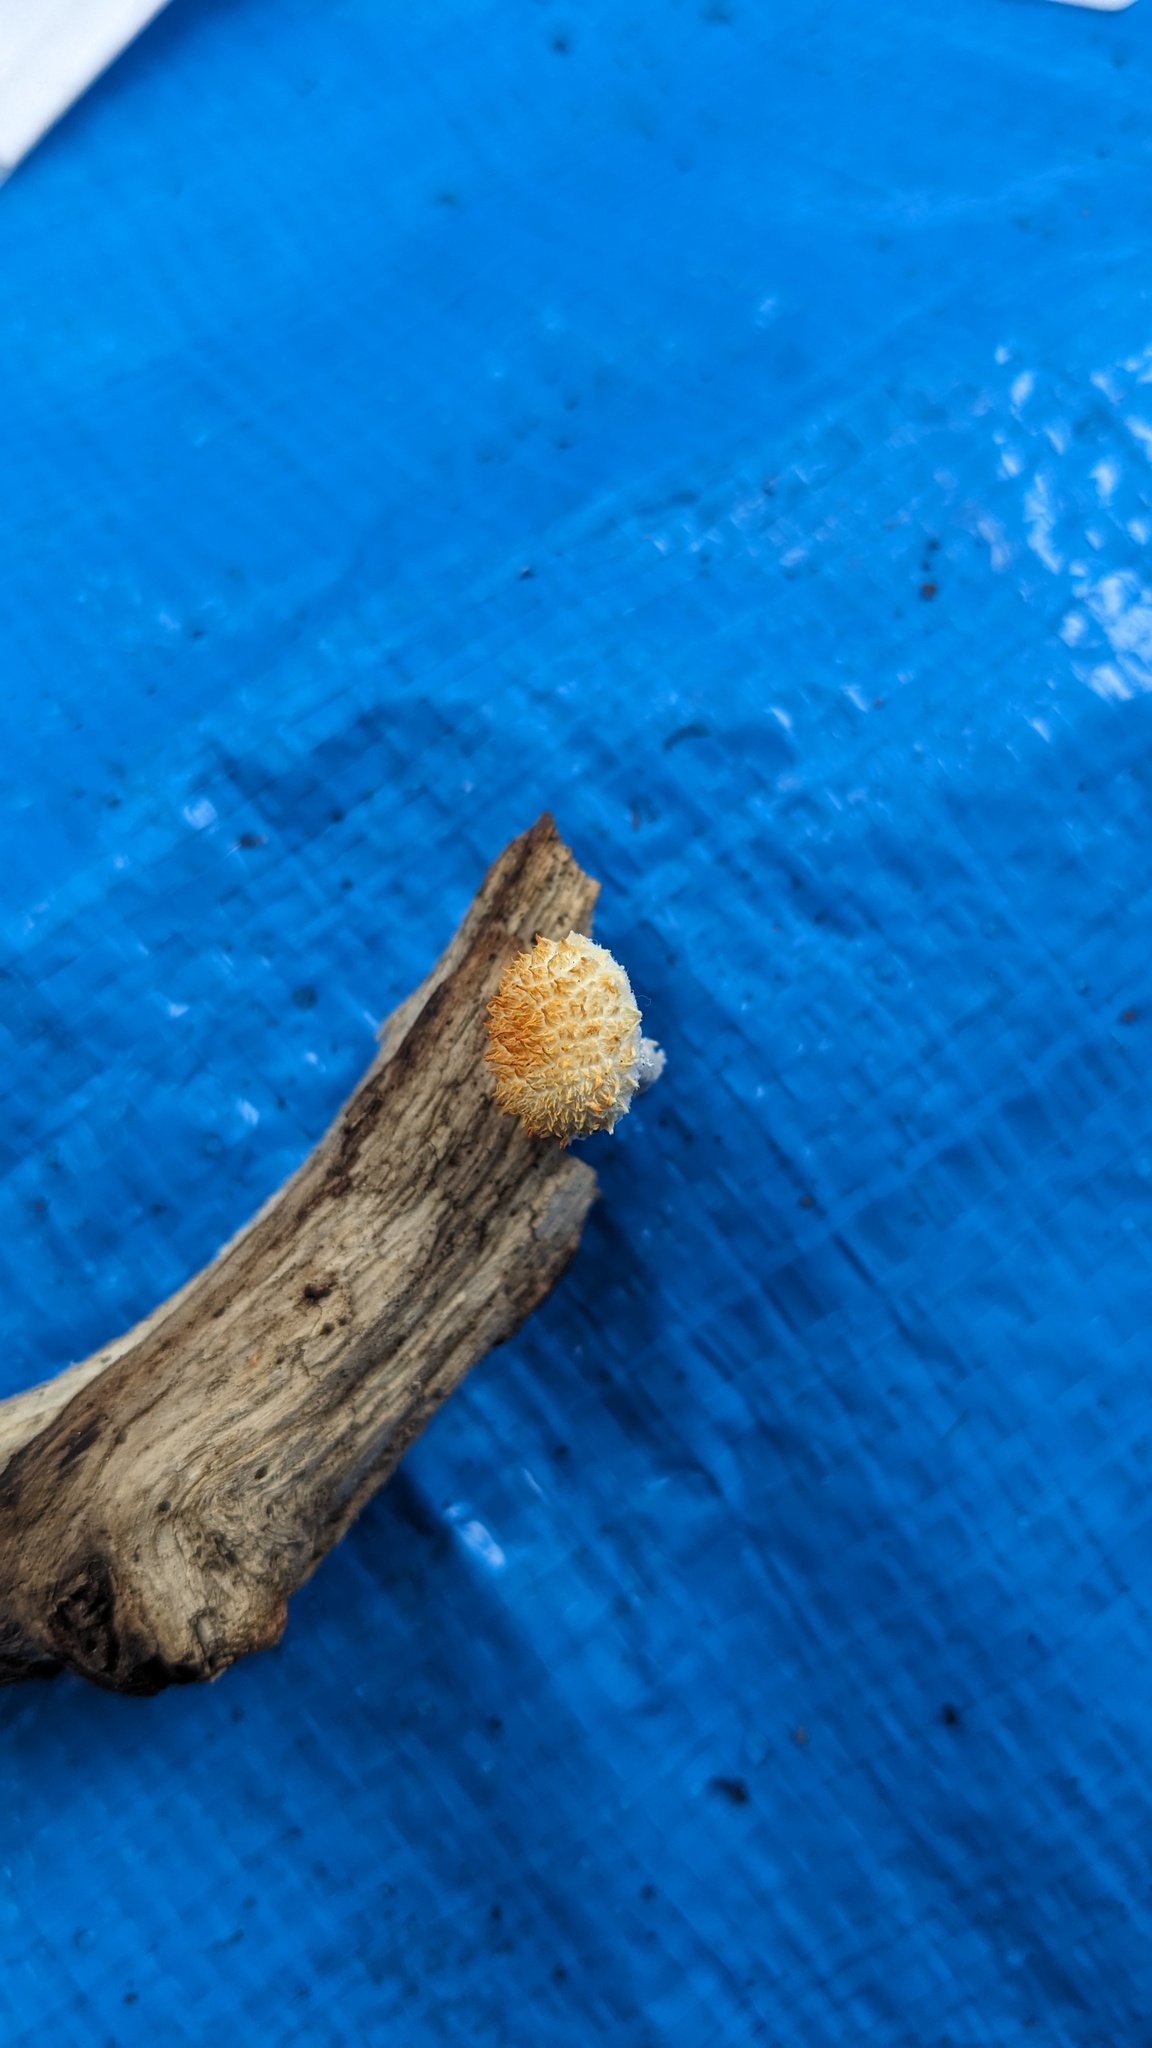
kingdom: Fungi
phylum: Basidiomycota
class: Agaricomycetes
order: Agaricales
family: Physalacriaceae
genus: Cyptotrama
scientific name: Cyptotrama asprata
